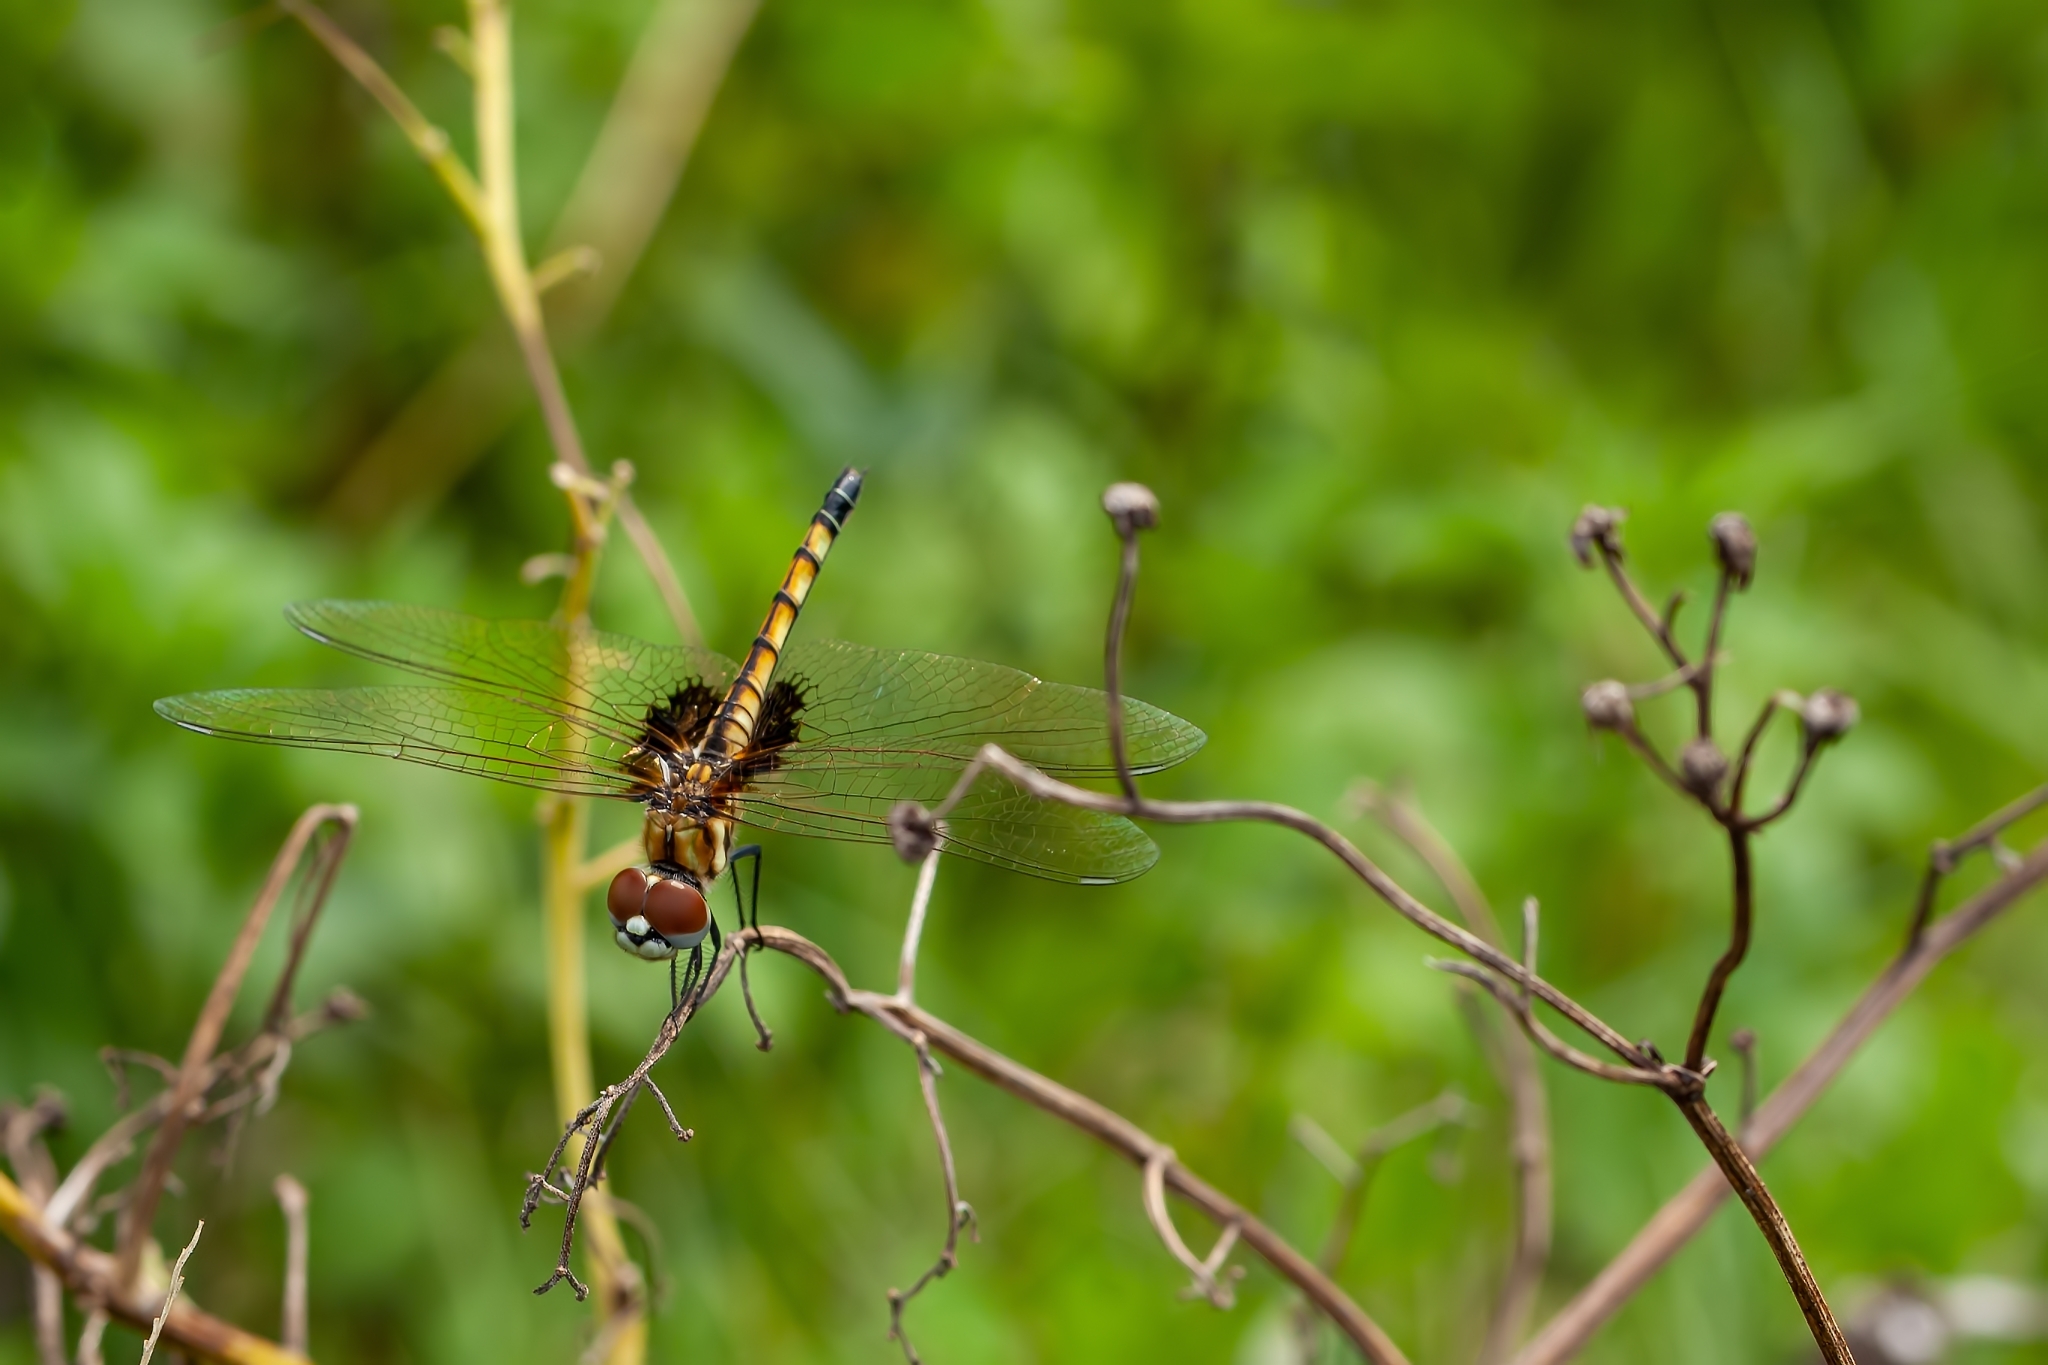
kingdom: Animalia
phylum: Arthropoda
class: Insecta
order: Odonata
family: Libellulidae
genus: Macrodiplax
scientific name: Macrodiplax balteata
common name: Marl pennant
